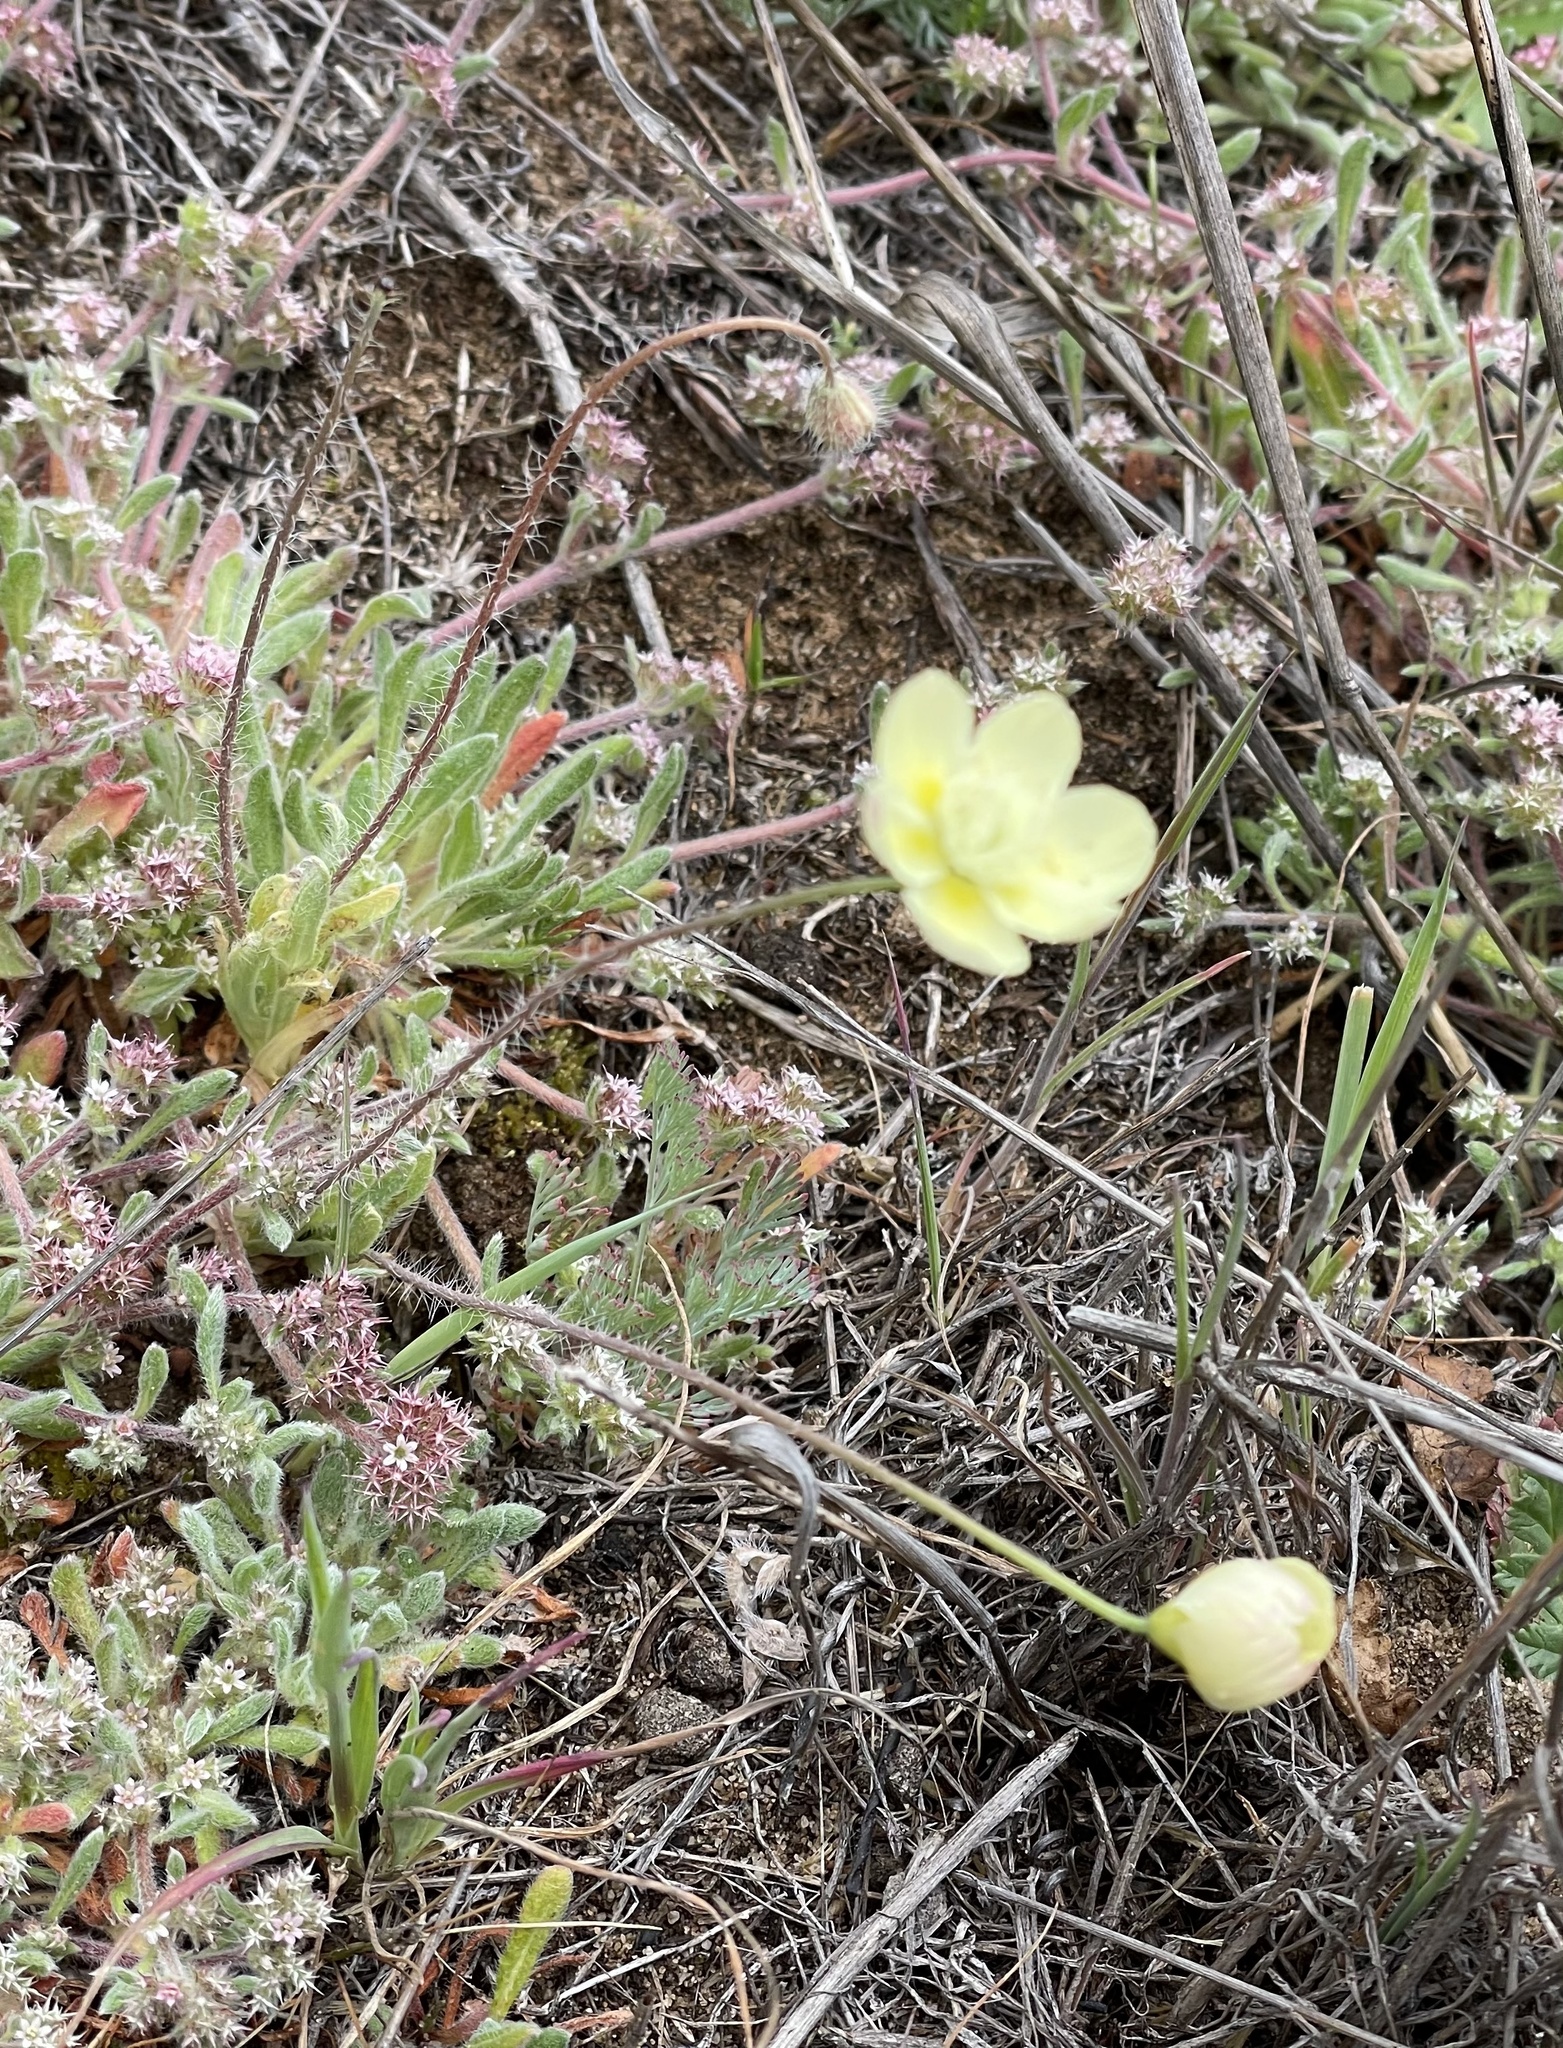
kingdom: Plantae
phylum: Tracheophyta
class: Magnoliopsida
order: Ranunculales
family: Papaveraceae
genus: Platystemon
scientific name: Platystemon californicus
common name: Cream-cups
